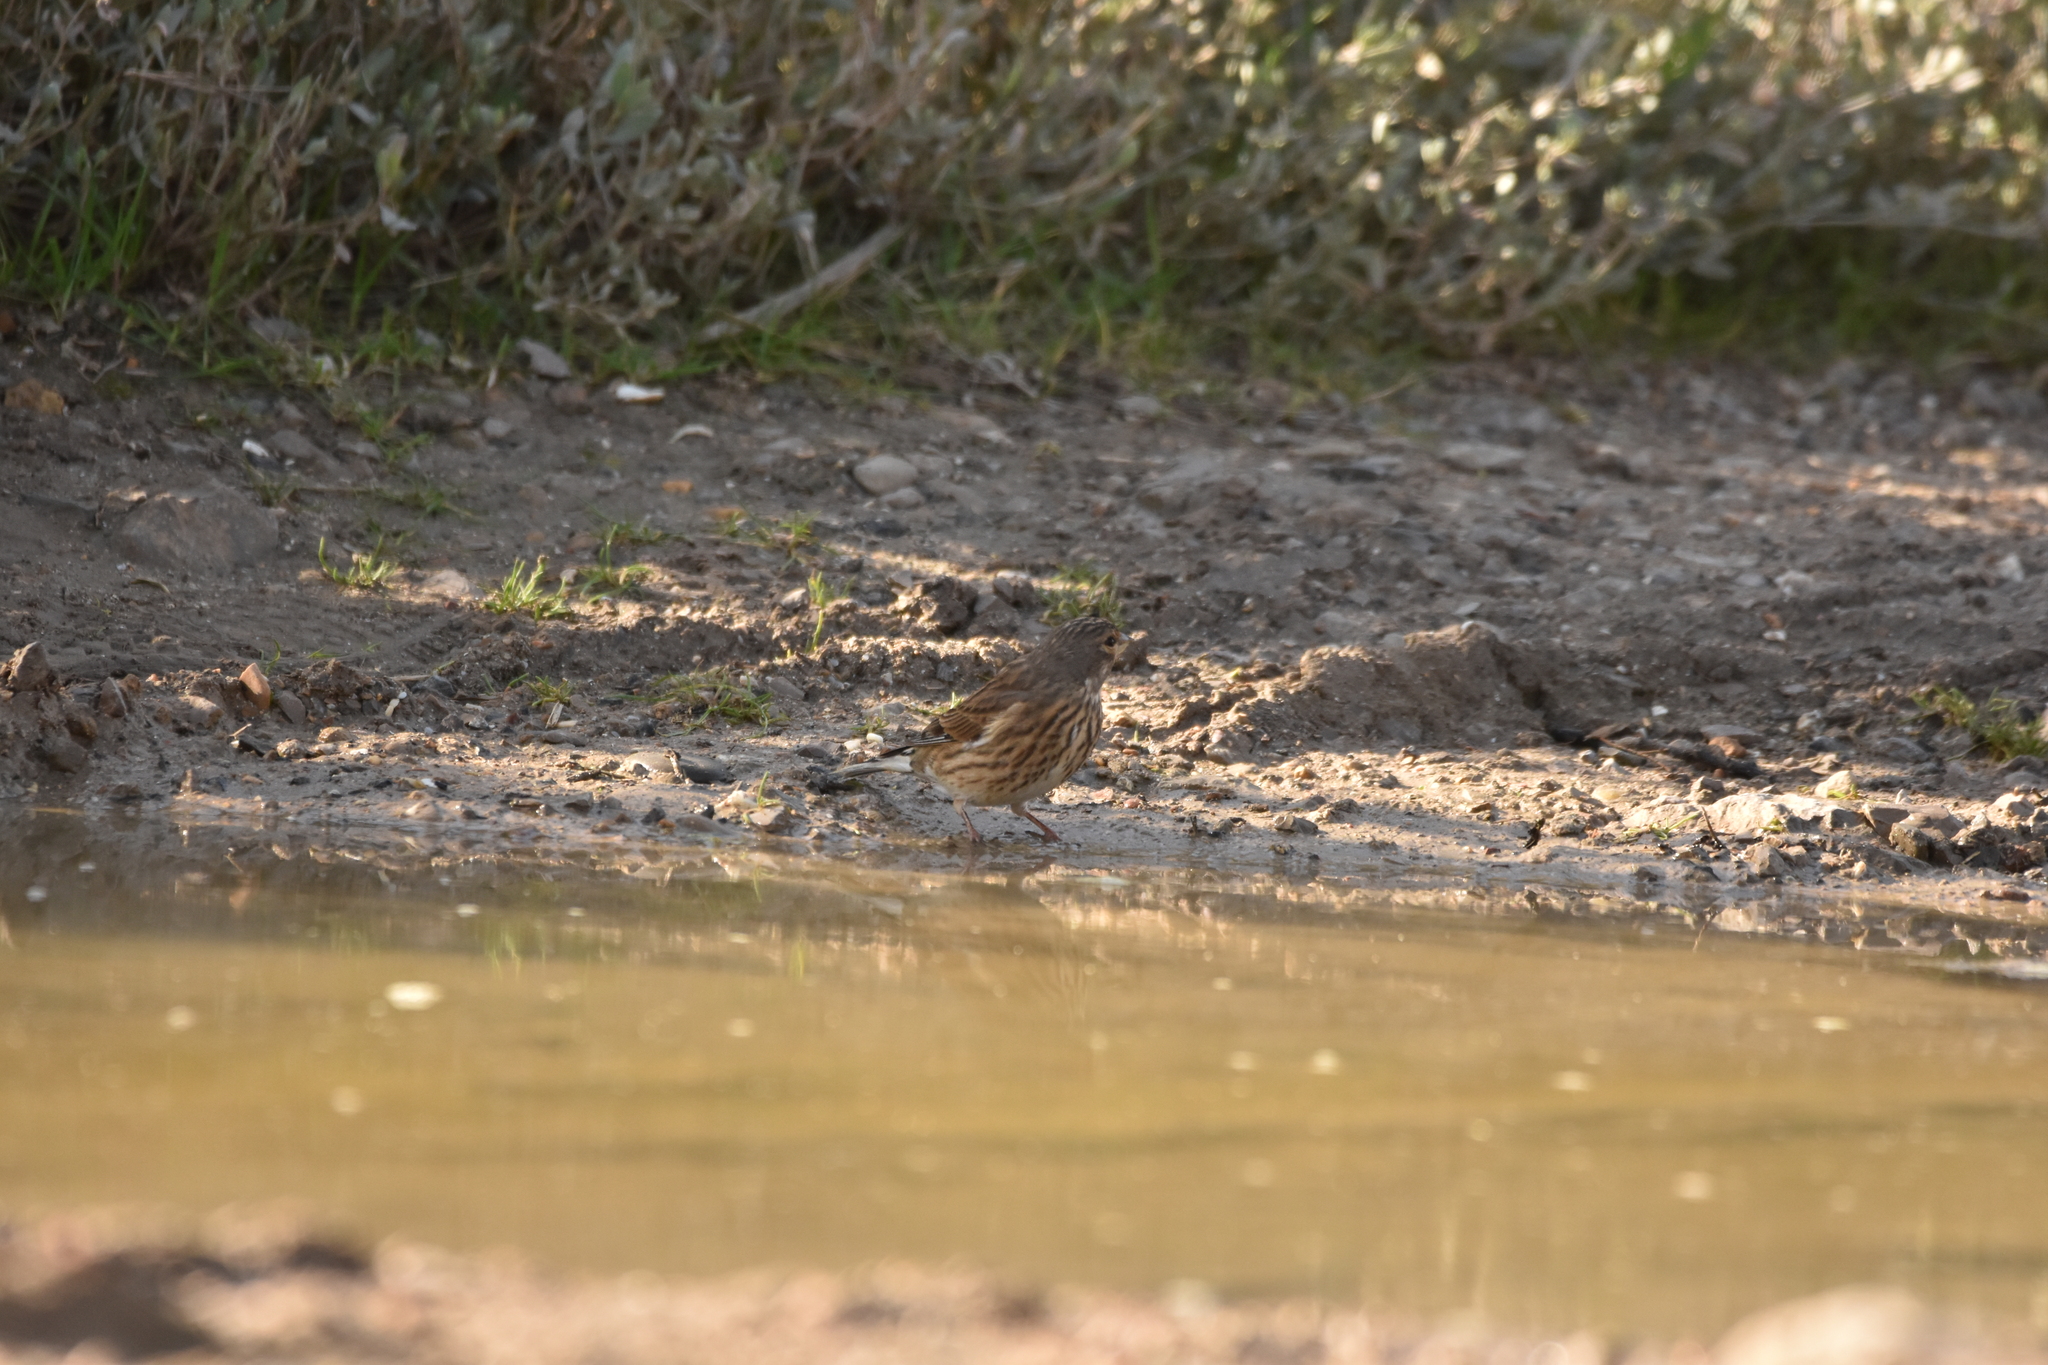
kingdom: Animalia
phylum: Chordata
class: Aves
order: Passeriformes
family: Fringillidae
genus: Linaria
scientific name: Linaria cannabina
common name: Common linnet
